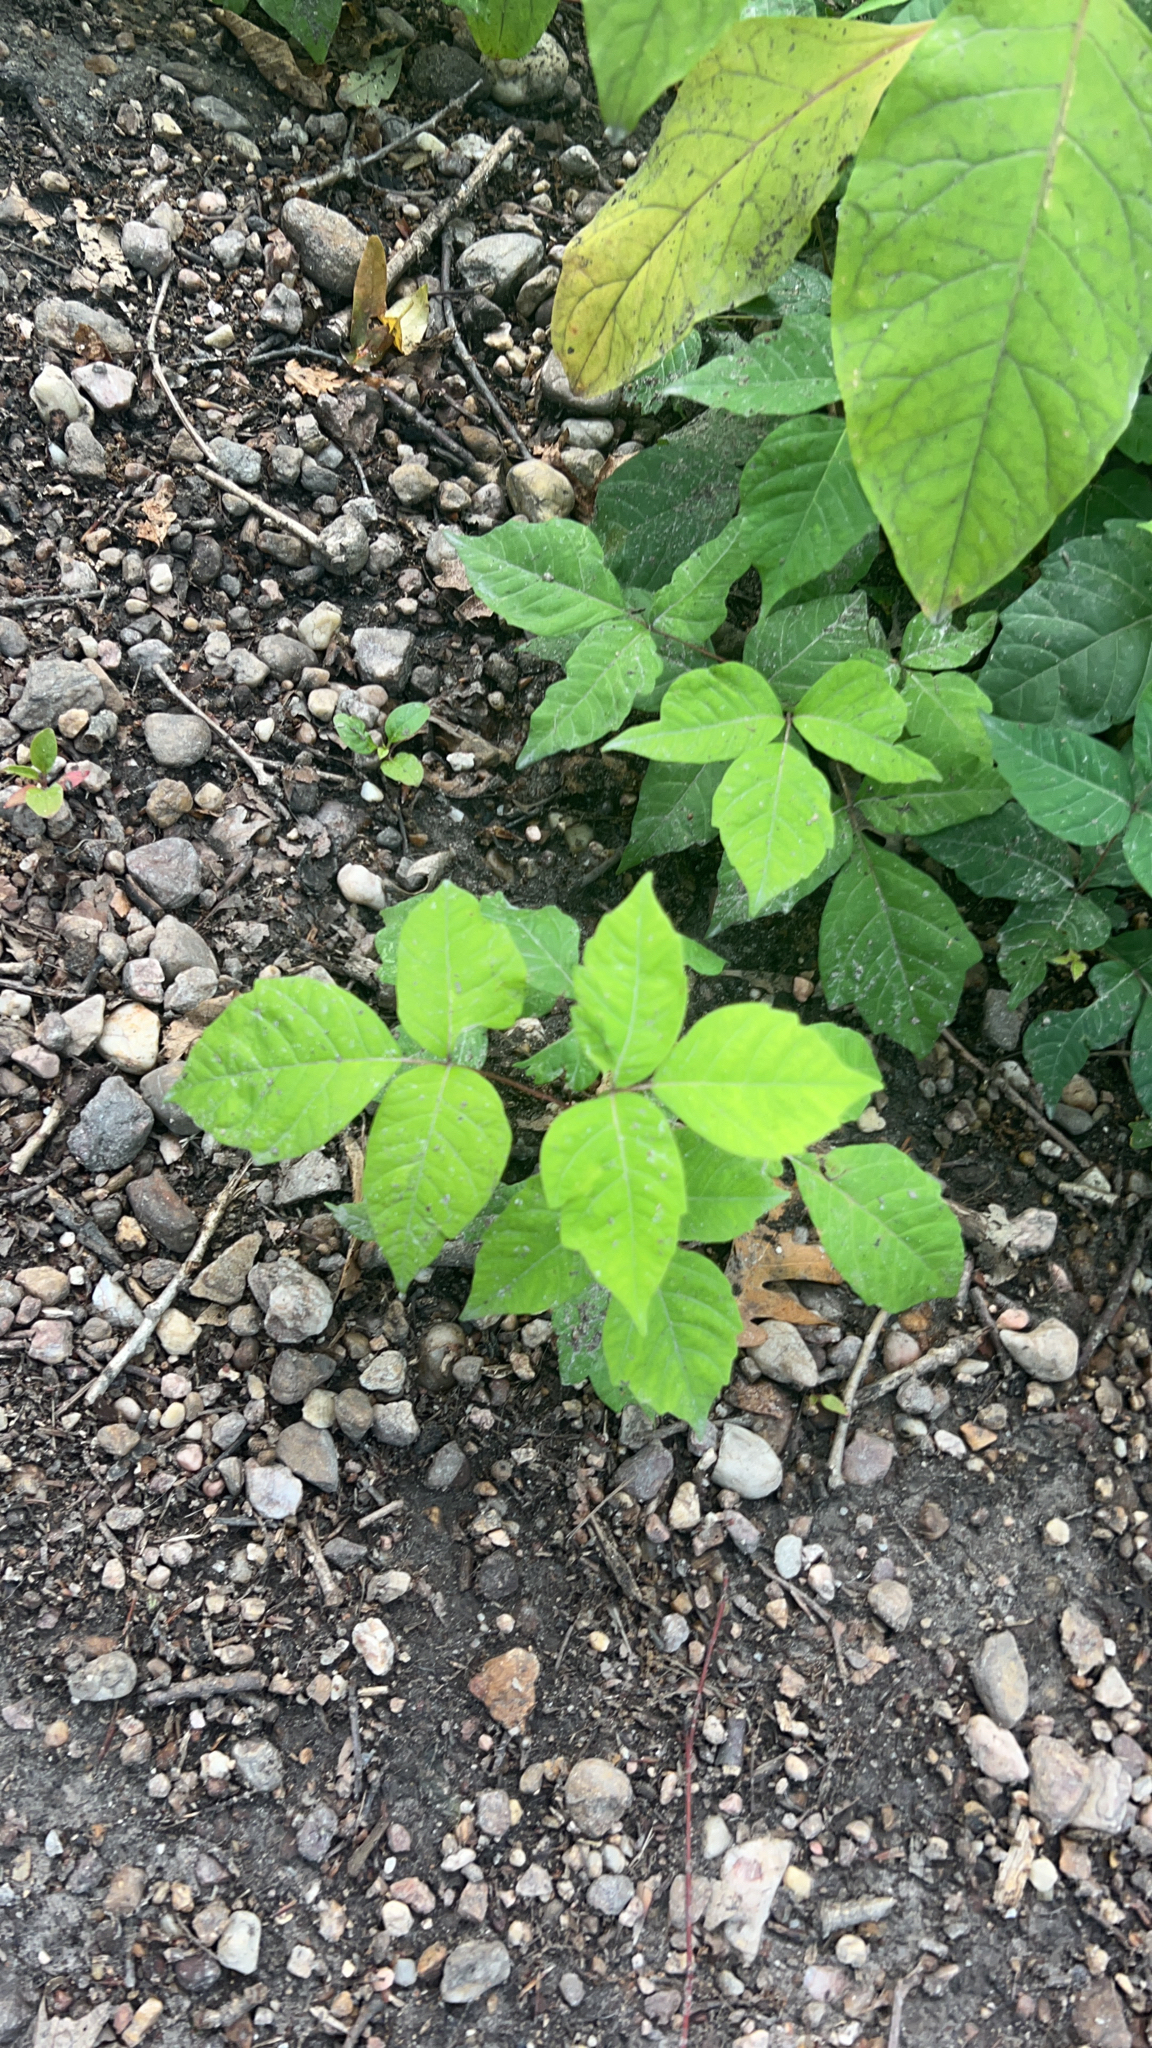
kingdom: Plantae
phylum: Tracheophyta
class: Magnoliopsida
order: Sapindales
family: Anacardiaceae
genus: Toxicodendron
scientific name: Toxicodendron radicans
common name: Poison ivy
